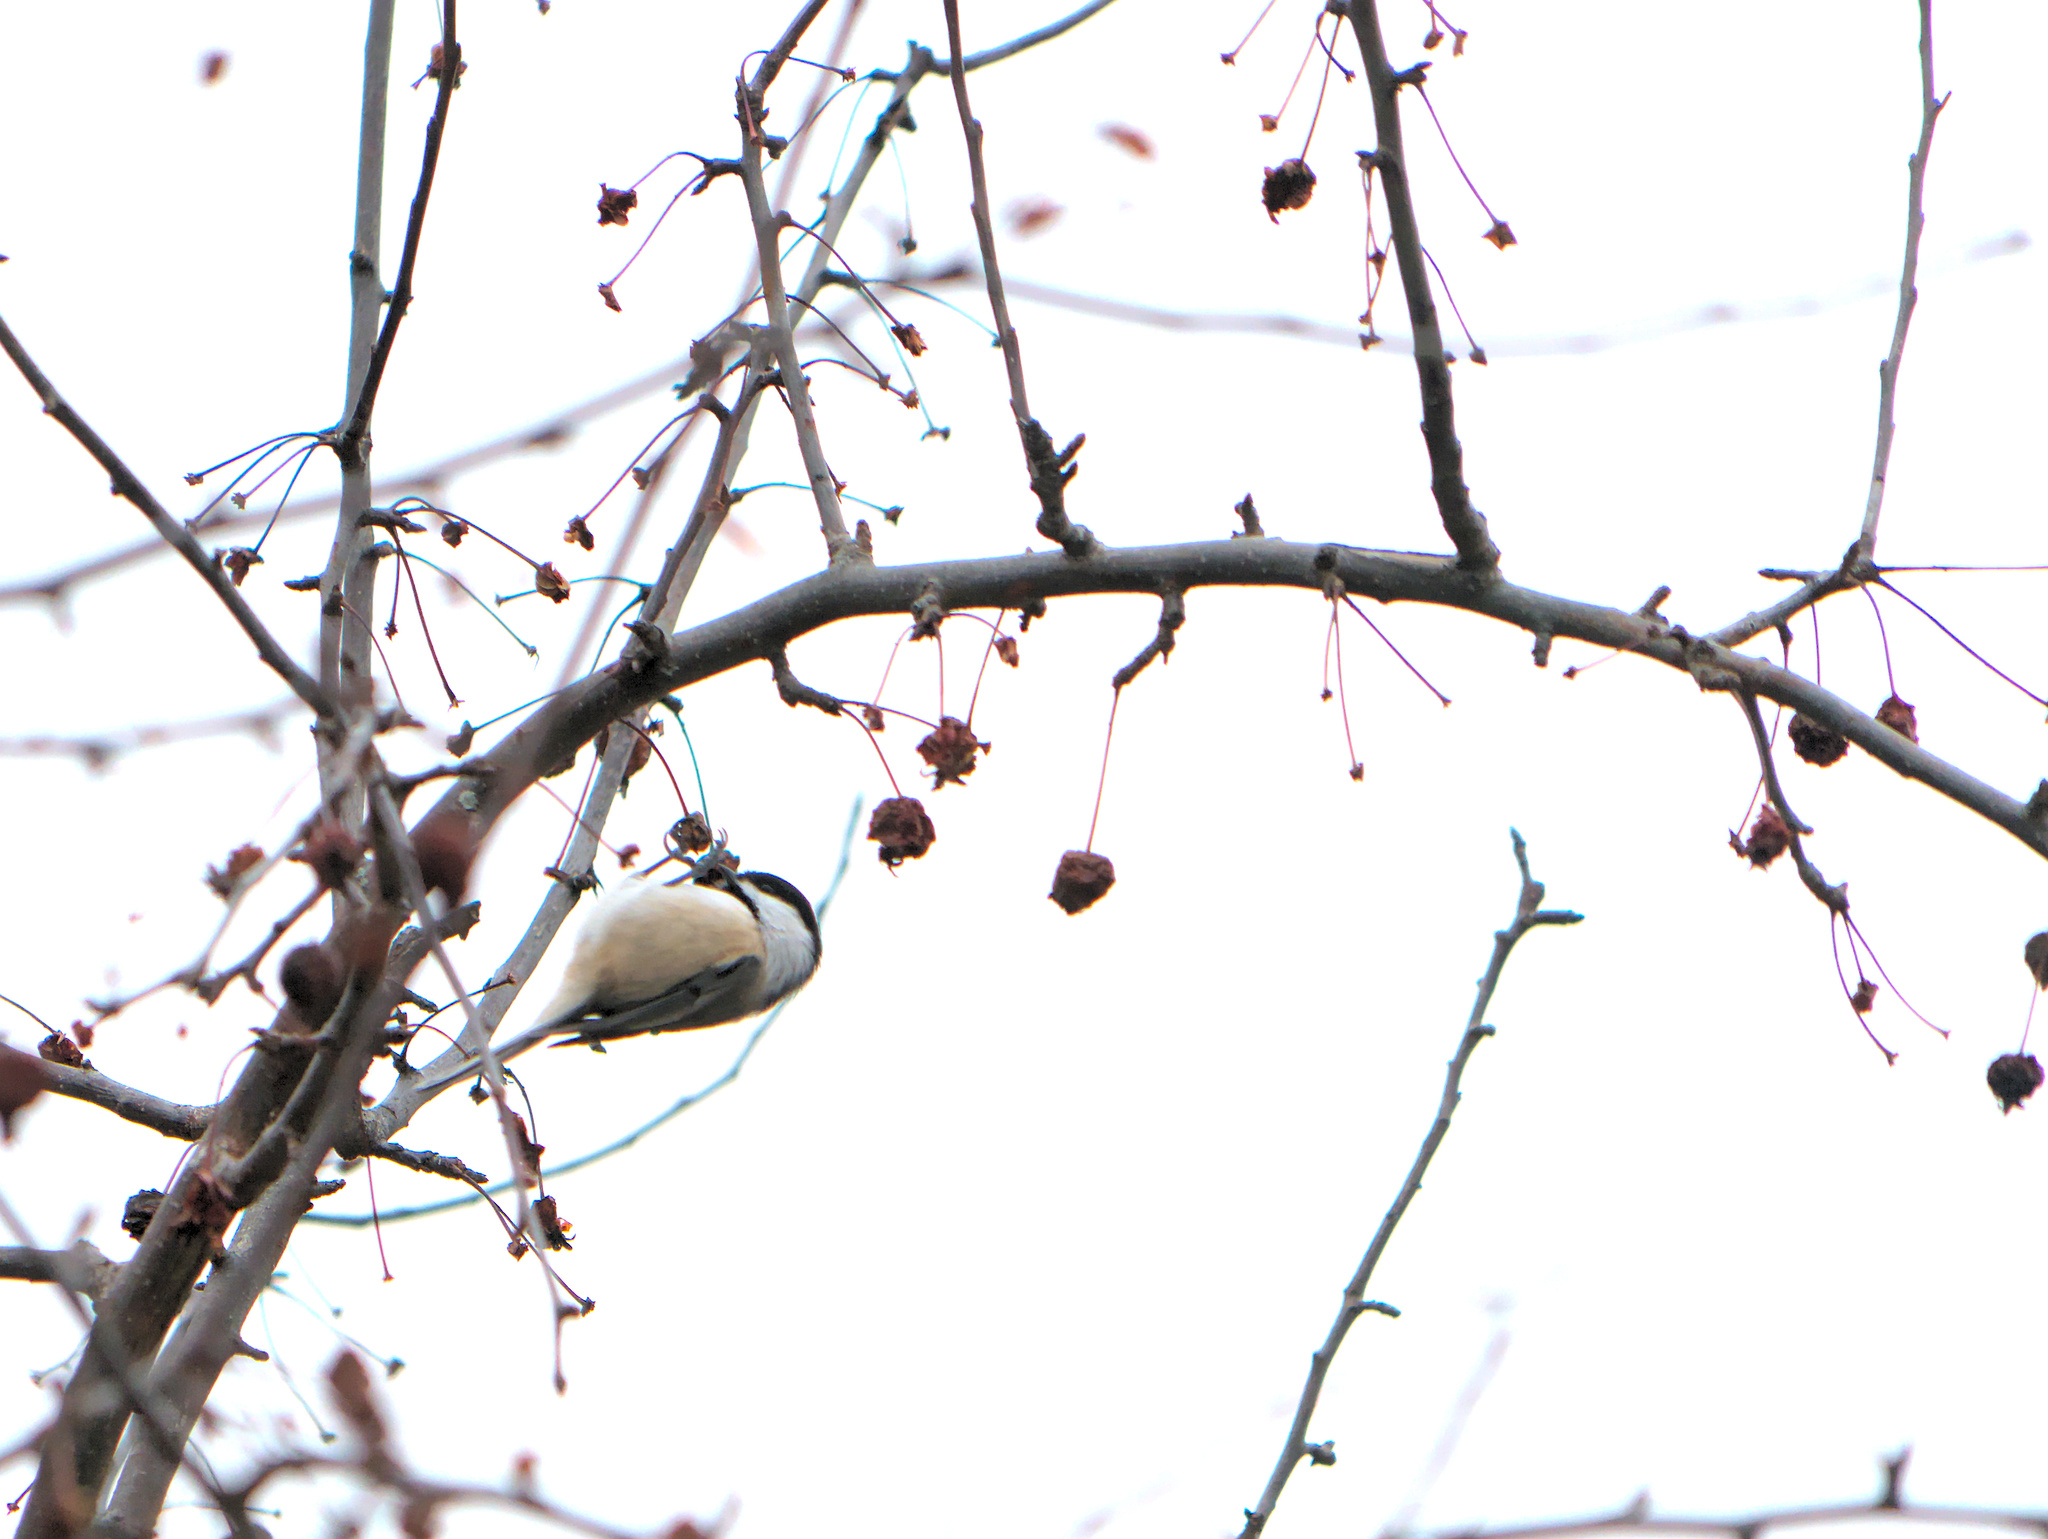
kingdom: Animalia
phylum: Chordata
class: Aves
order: Passeriformes
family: Paridae
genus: Poecile
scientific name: Poecile atricapillus
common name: Black-capped chickadee
